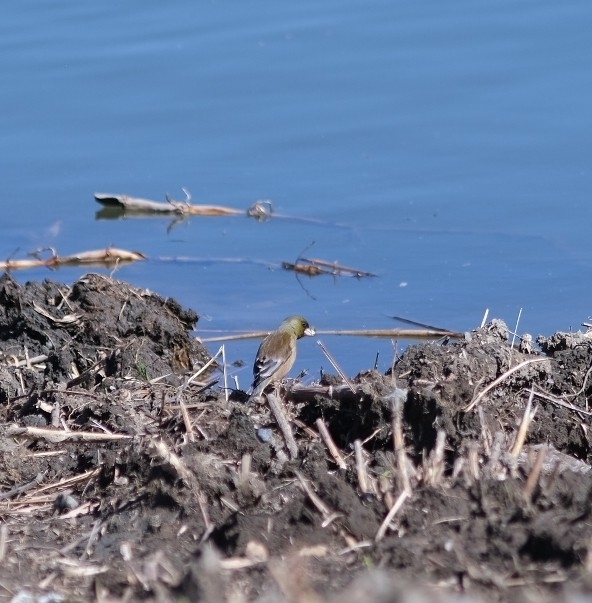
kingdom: Plantae
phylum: Tracheophyta
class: Liliopsida
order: Poales
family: Poaceae
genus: Chloris
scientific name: Chloris sinica
